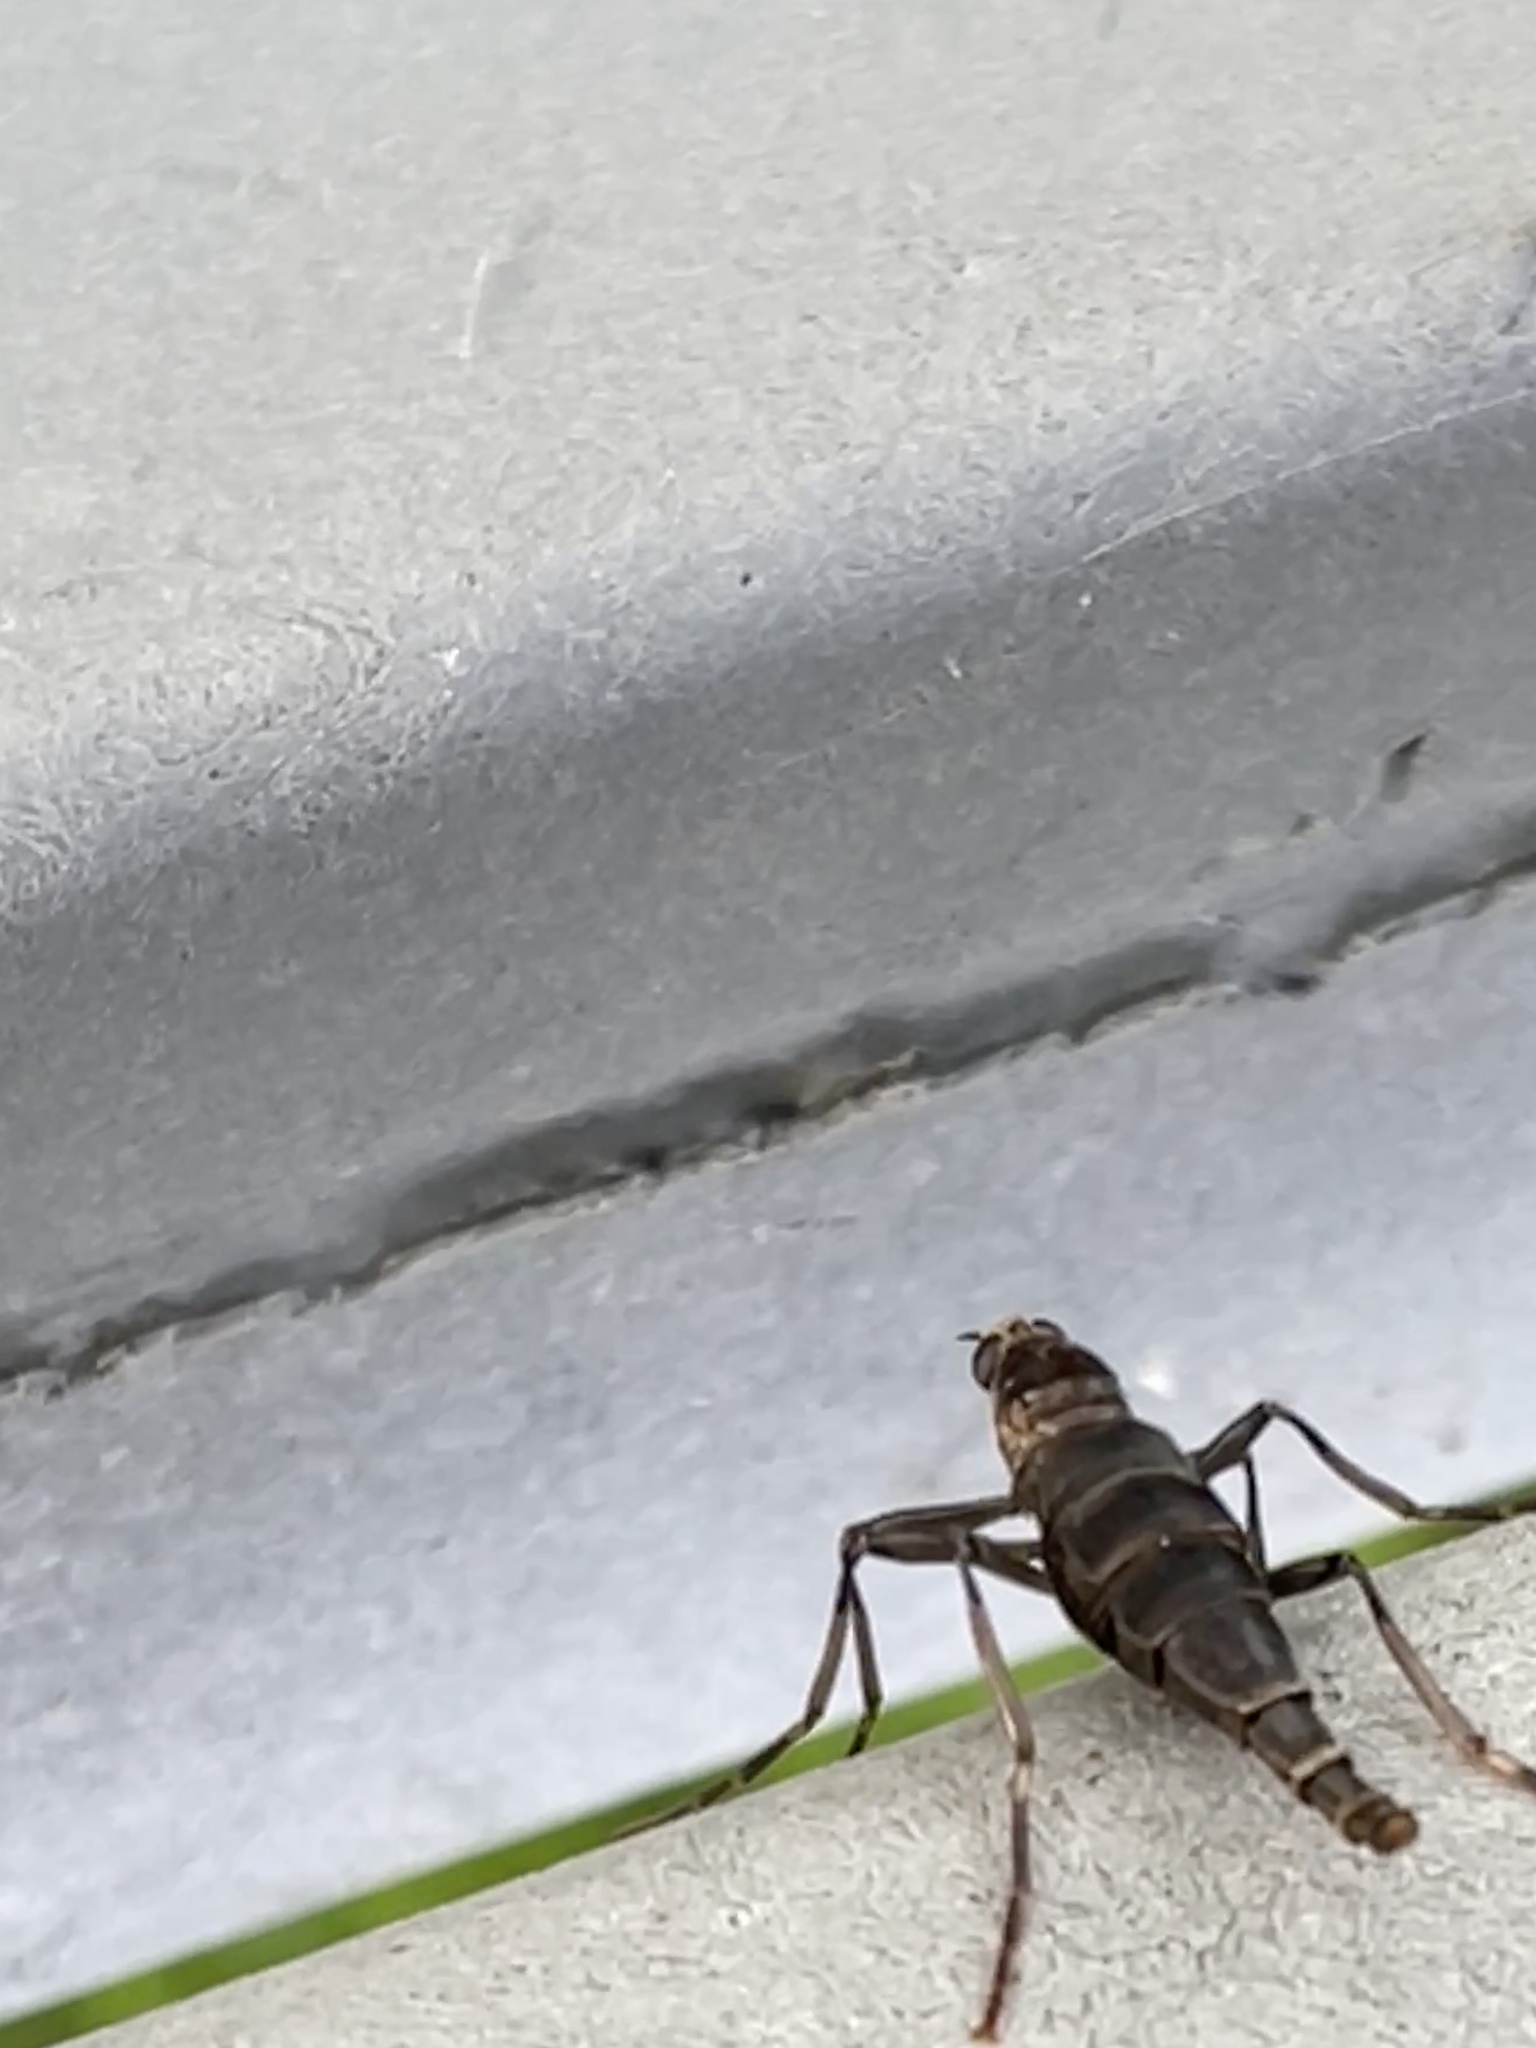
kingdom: Animalia
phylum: Arthropoda
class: Insecta
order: Diptera
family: Stratiomyidae
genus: Boreoides
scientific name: Boreoides subulatus
